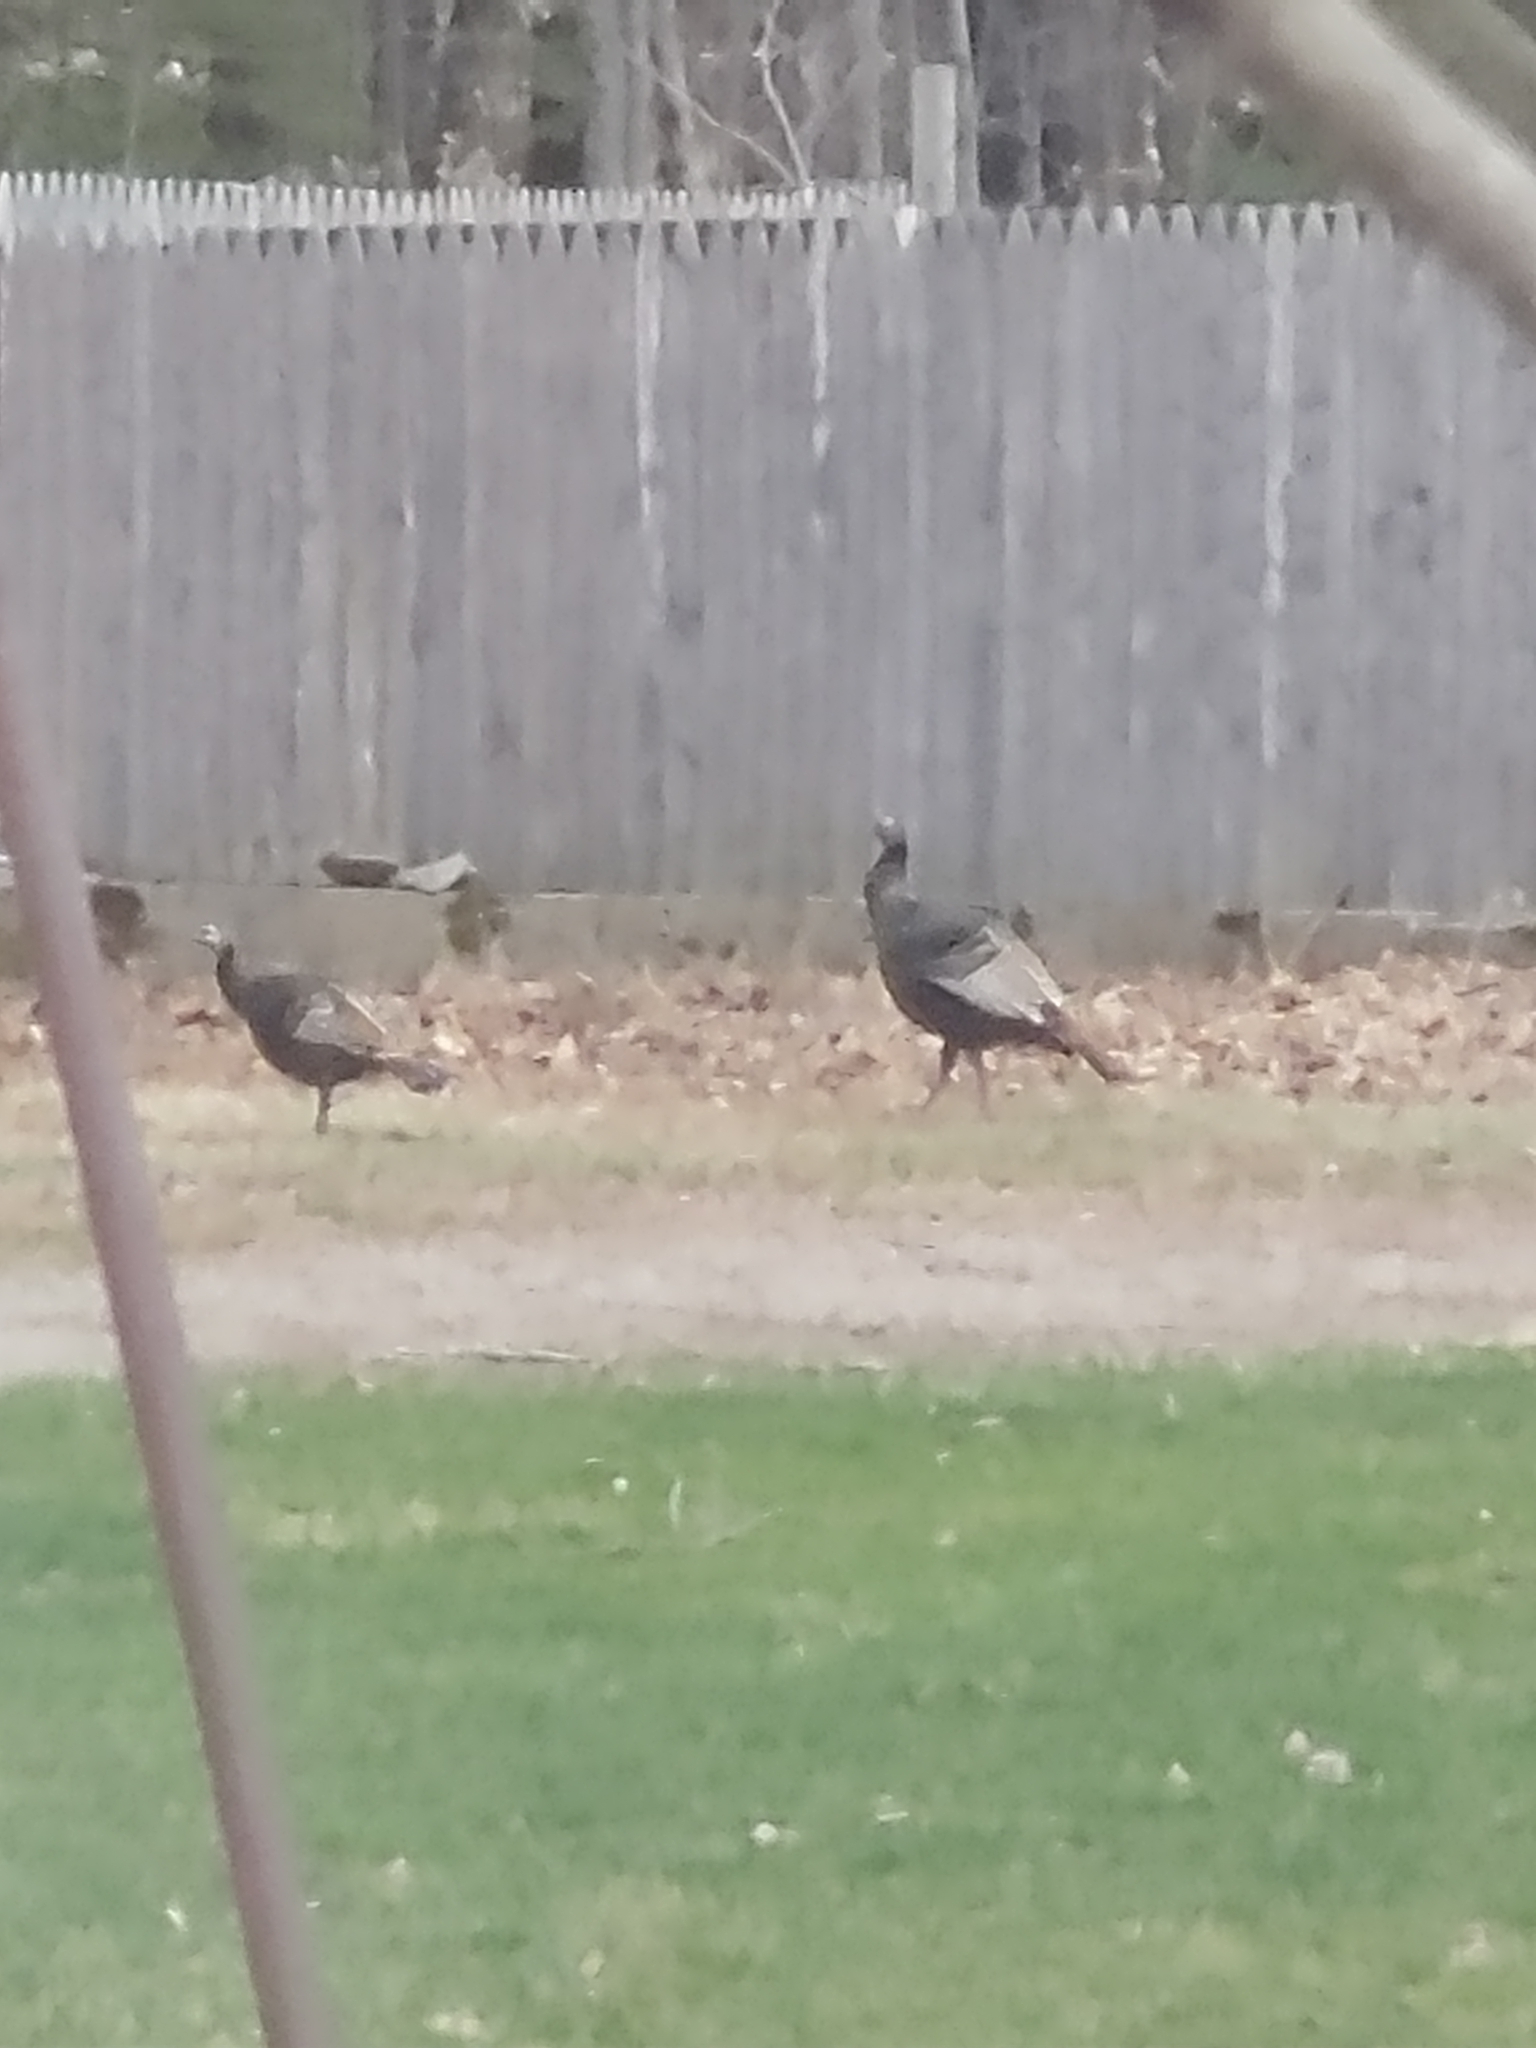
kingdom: Animalia
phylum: Chordata
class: Aves
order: Galliformes
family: Phasianidae
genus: Meleagris
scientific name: Meleagris gallopavo
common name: Wild turkey
